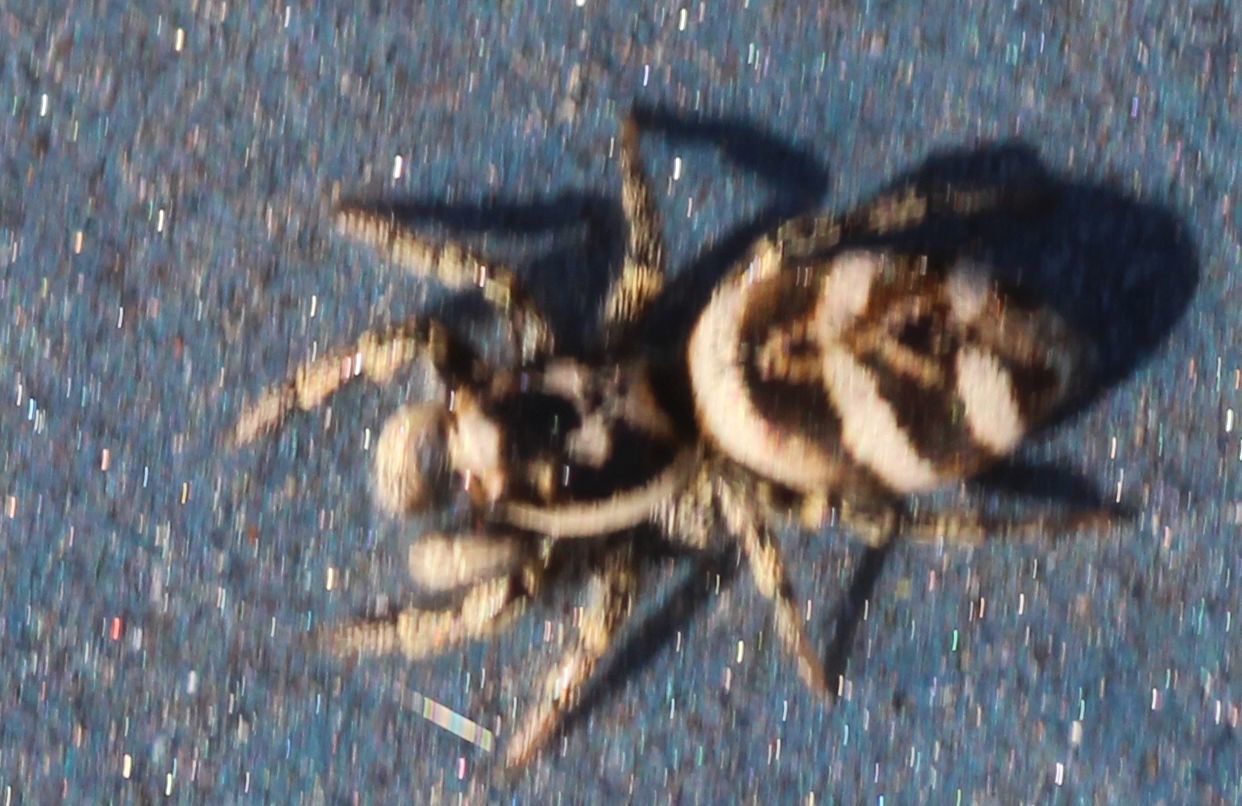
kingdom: Animalia
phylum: Arthropoda
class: Arachnida
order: Araneae
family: Salticidae
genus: Salticus
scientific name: Salticus scenicus
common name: Zebra jumper
